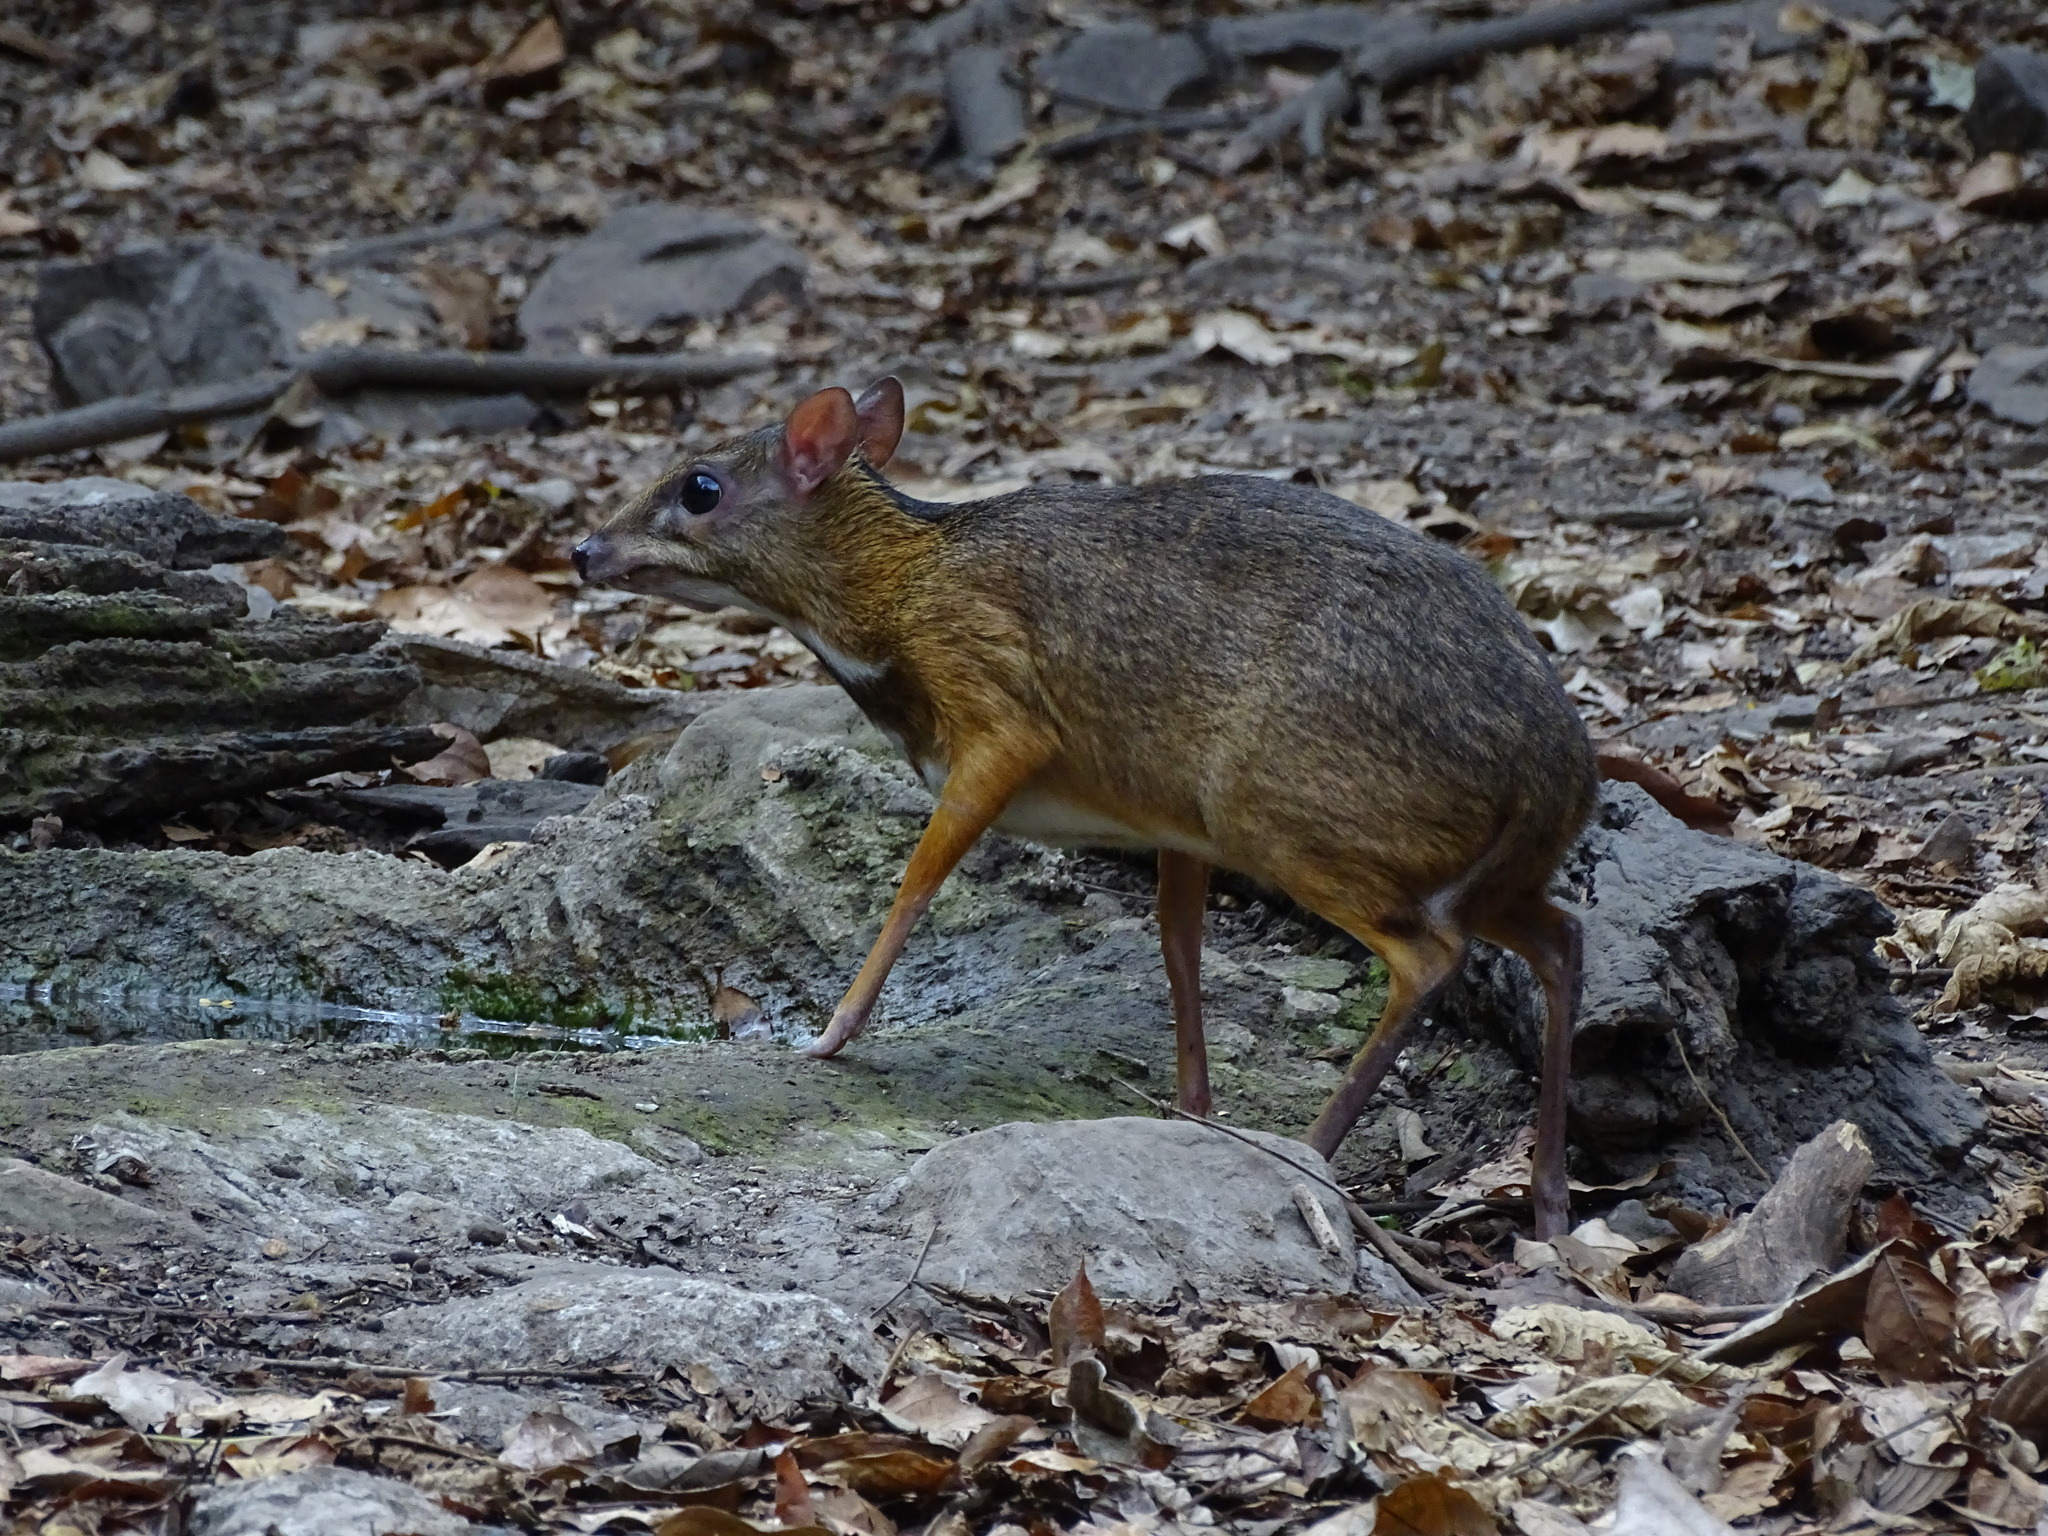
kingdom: Animalia
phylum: Chordata
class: Mammalia
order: Artiodactyla
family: Tragulidae
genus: Tragulus
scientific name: Tragulus kanchil
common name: Lesser mouse-deer
